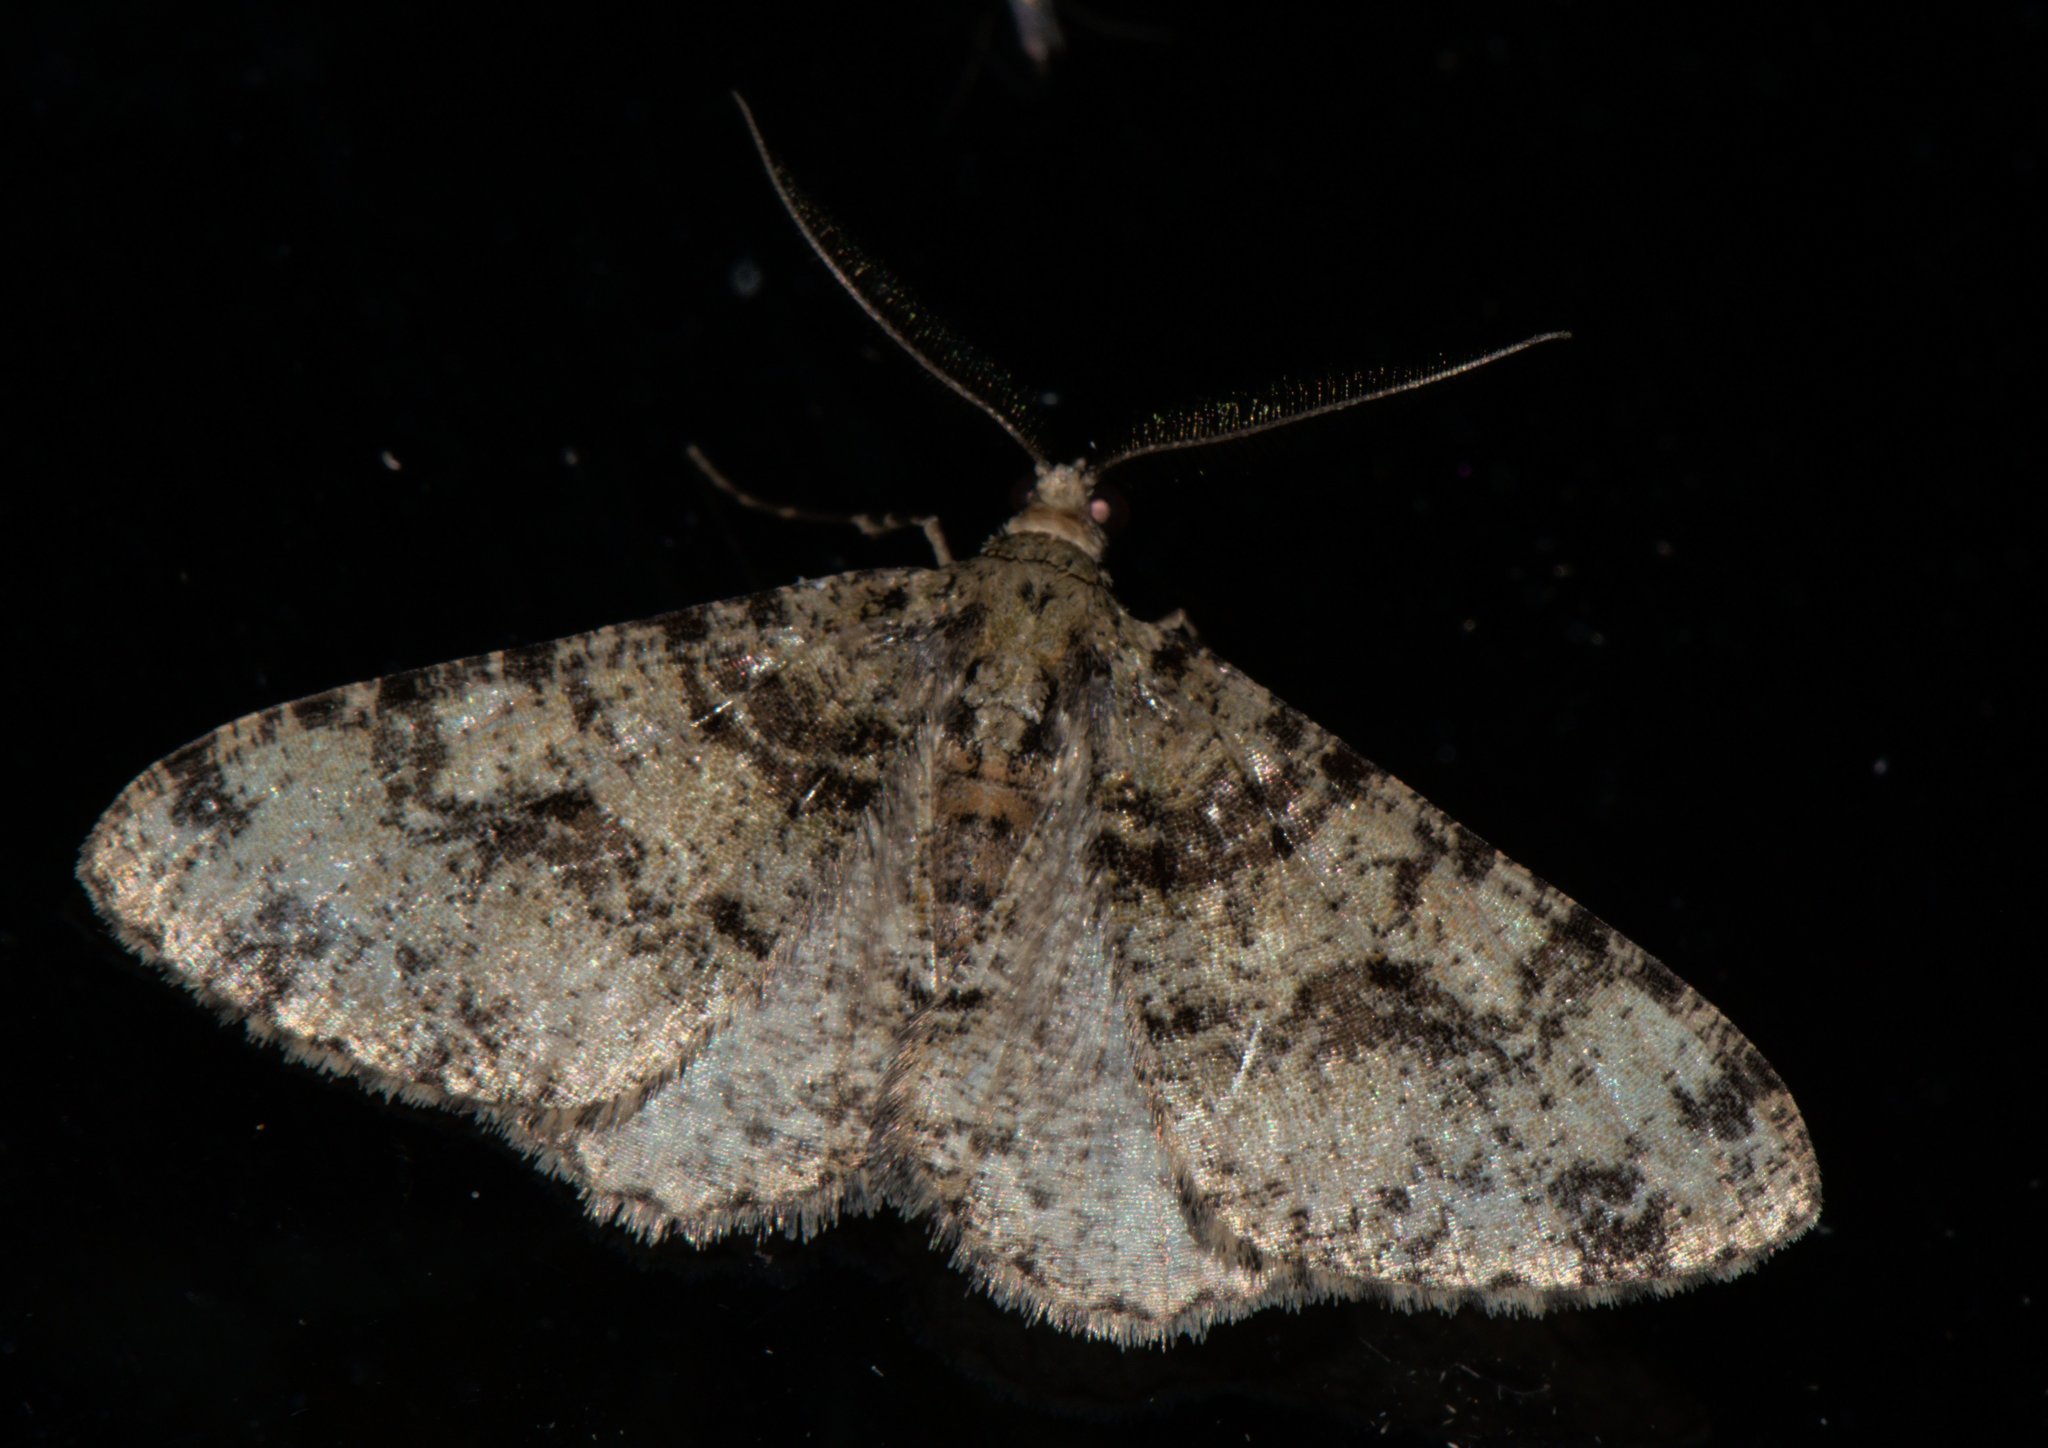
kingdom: Animalia
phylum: Arthropoda
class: Insecta
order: Lepidoptera
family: Geometridae
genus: Myrioblephara
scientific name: Myrioblephara duplexa
